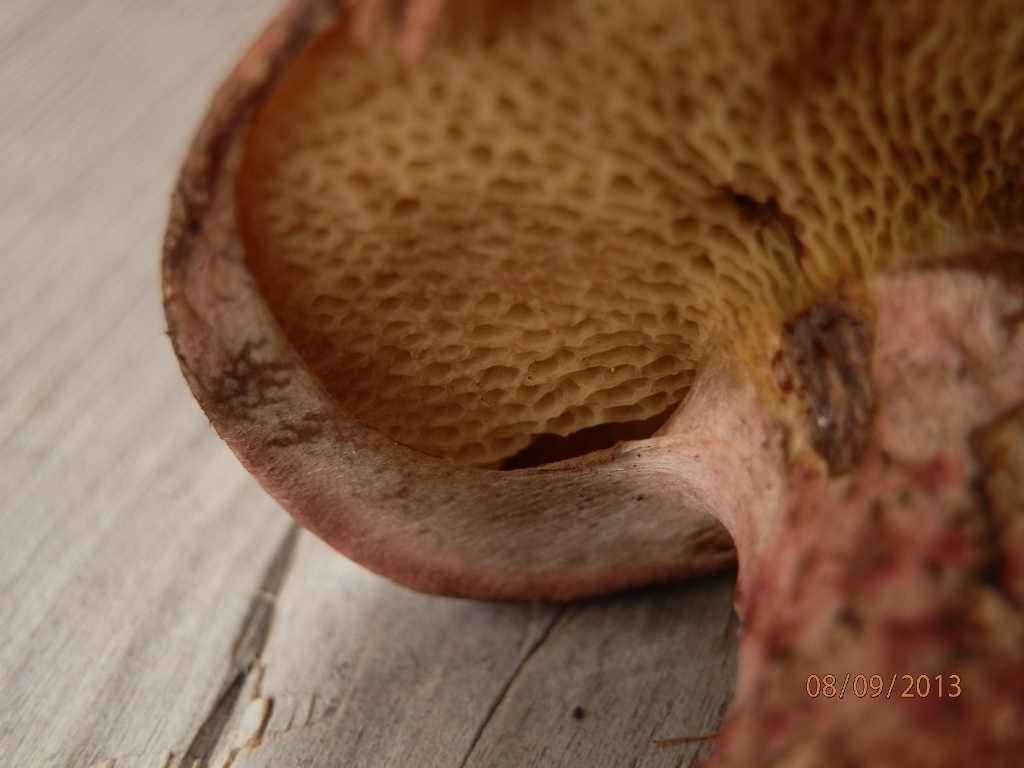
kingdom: Fungi
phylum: Basidiomycota
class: Agaricomycetes
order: Boletales
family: Suillaceae
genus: Suillus
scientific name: Suillus spraguei
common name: Painted suillus
